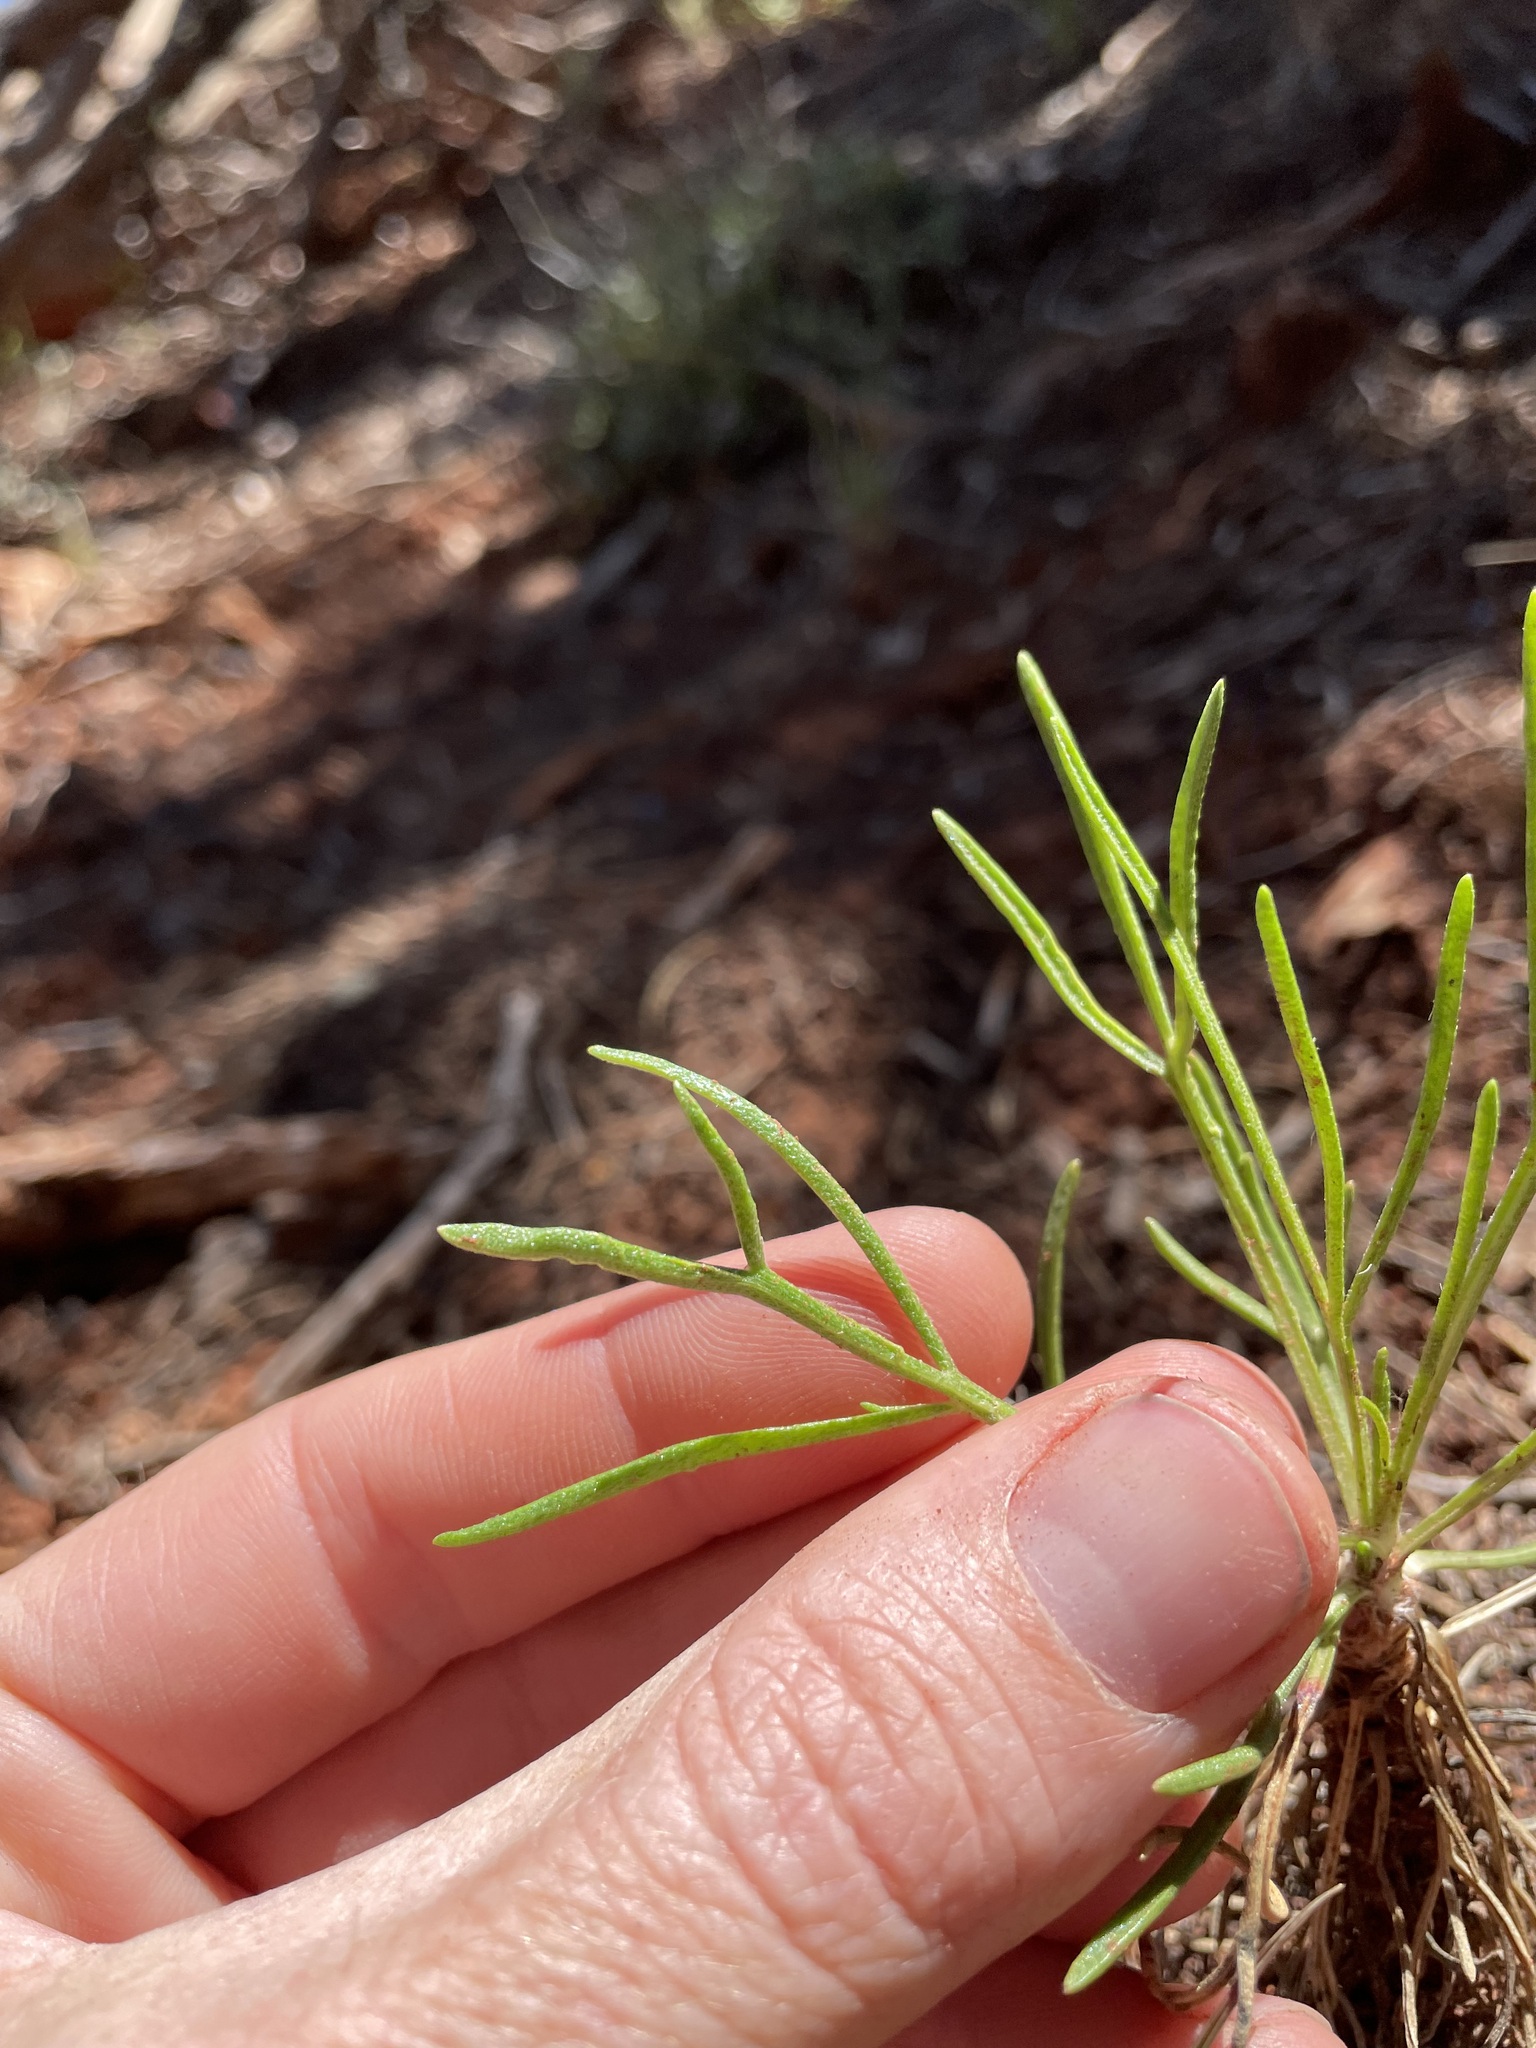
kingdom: Plantae
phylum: Tracheophyta
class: Magnoliopsida
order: Asterales
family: Asteraceae
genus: Hymenoxys
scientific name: Hymenoxys richardsonii
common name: Pingue rubberweed
